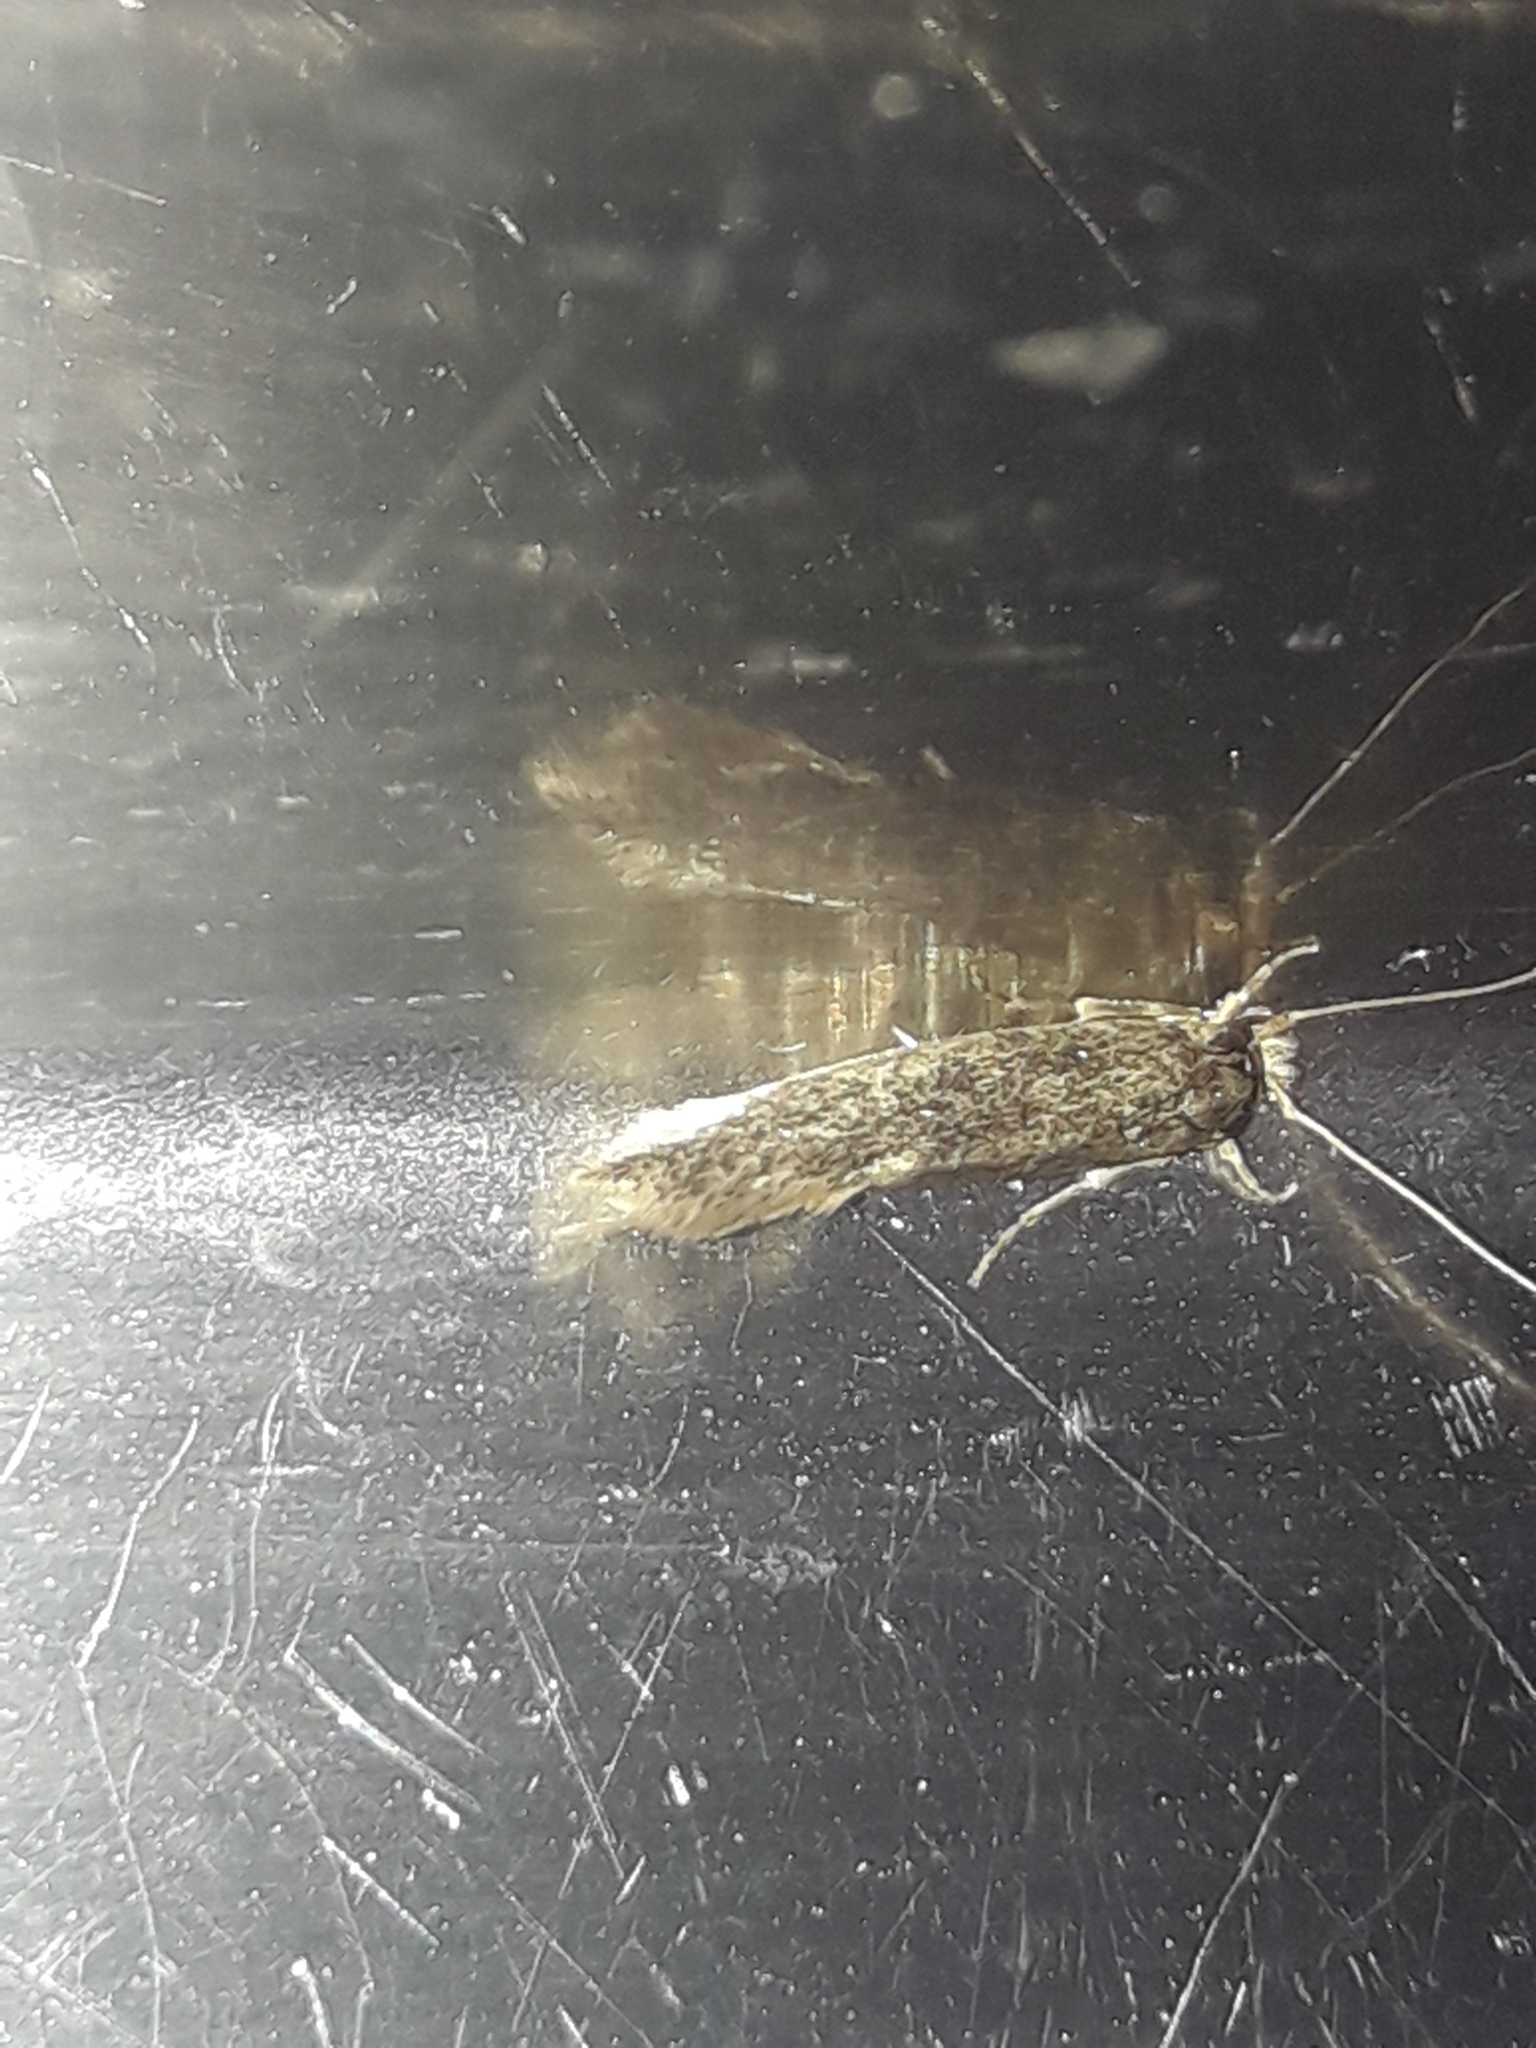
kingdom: Animalia
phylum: Arthropoda
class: Insecta
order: Lepidoptera
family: Tineidae
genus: Opogona
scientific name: Opogona omoscopa
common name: Moth
